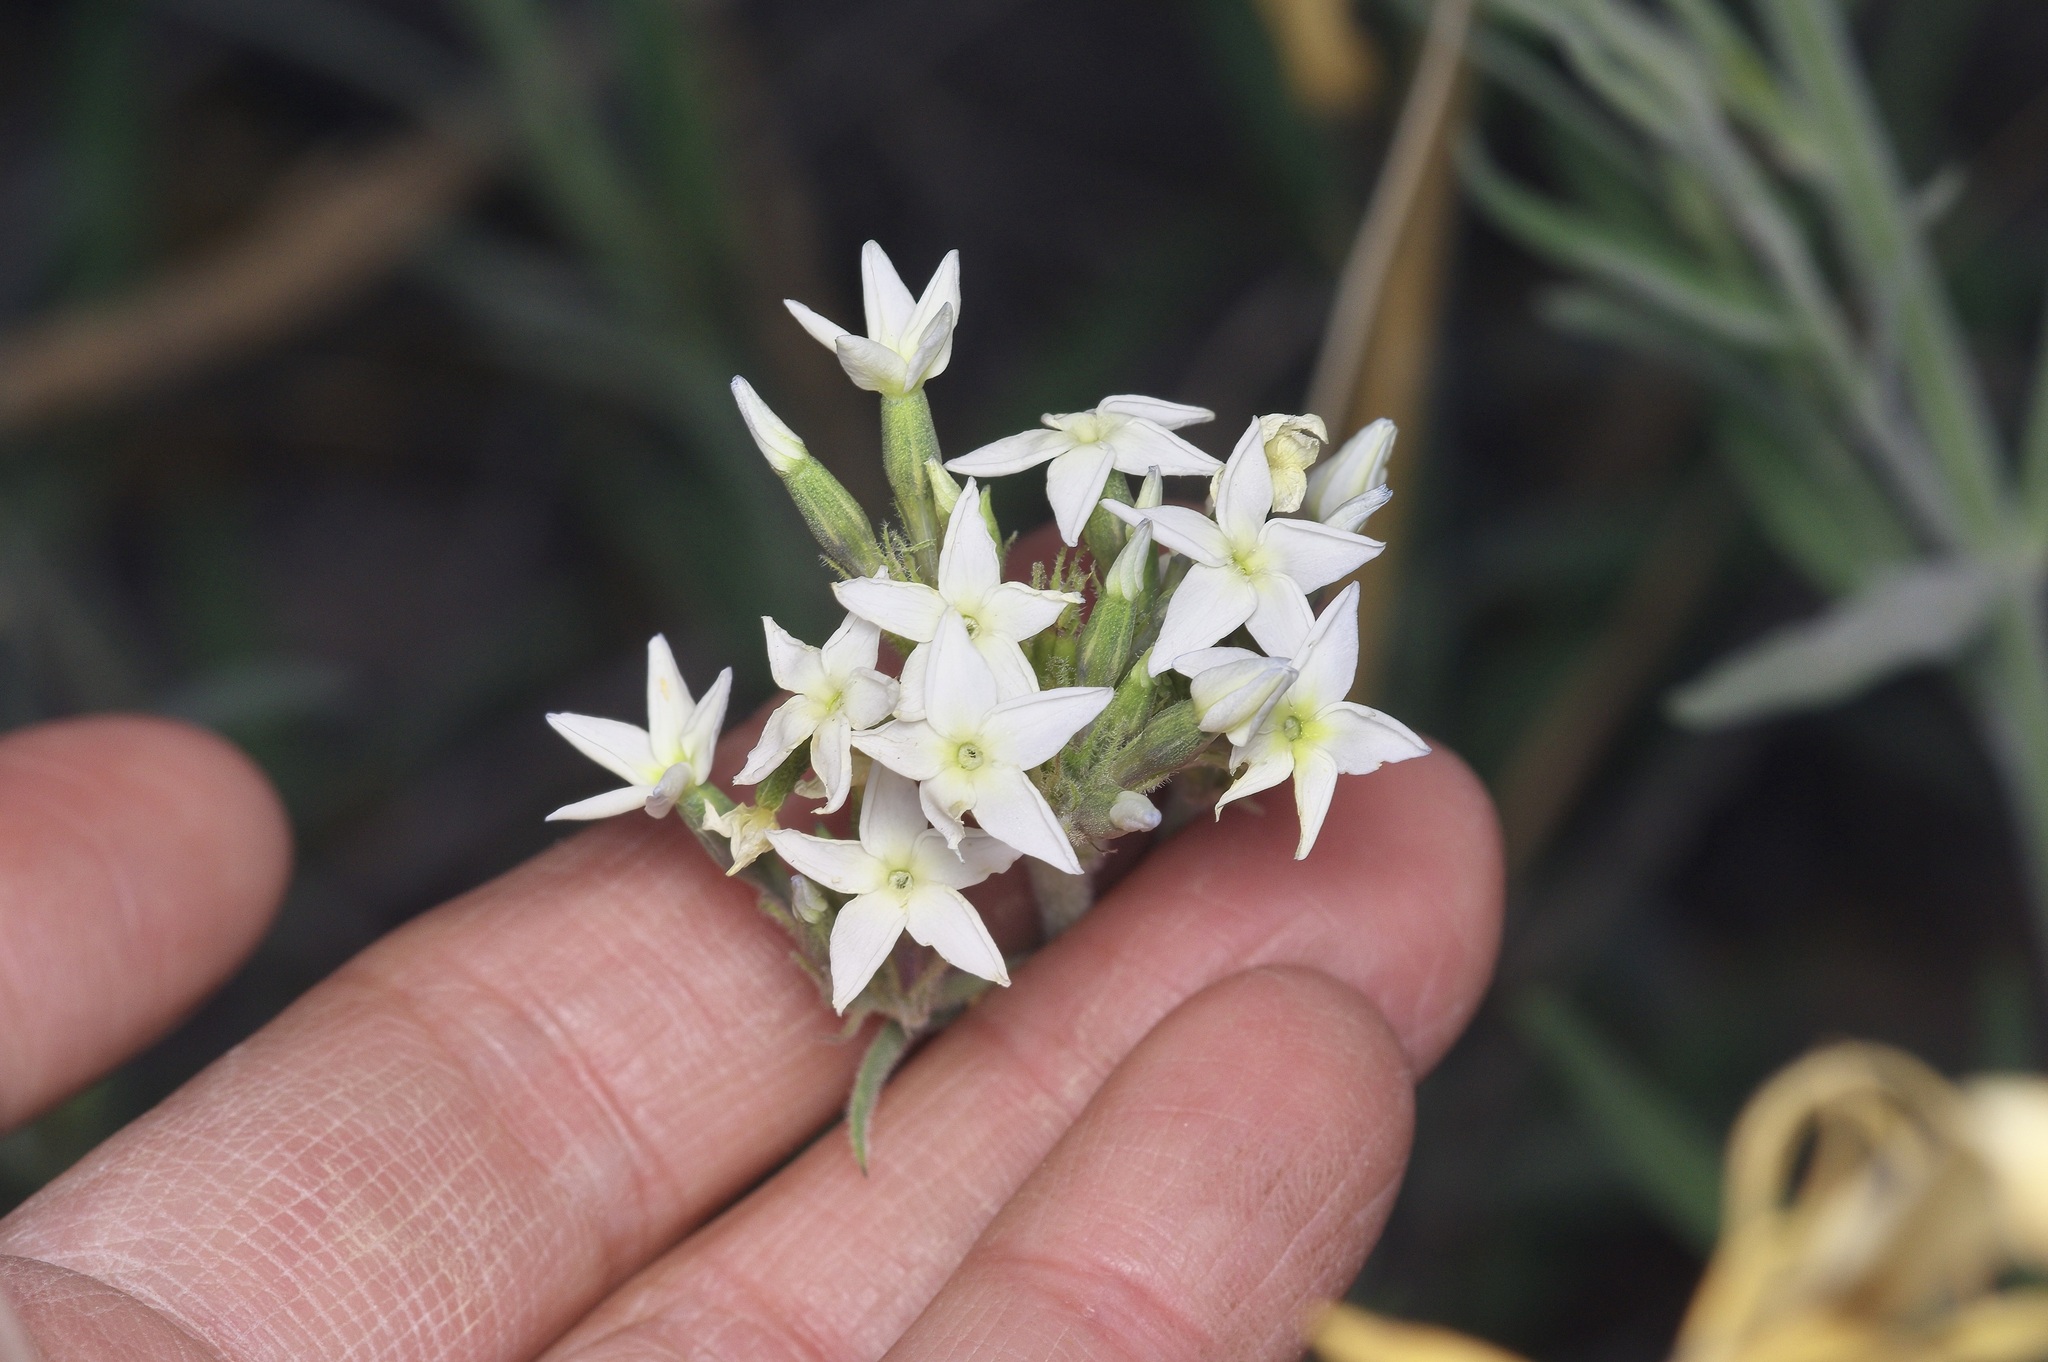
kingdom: Plantae
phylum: Tracheophyta
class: Magnoliopsida
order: Gentianales
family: Apocynaceae
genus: Amsonia
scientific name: Amsonia palmeri
